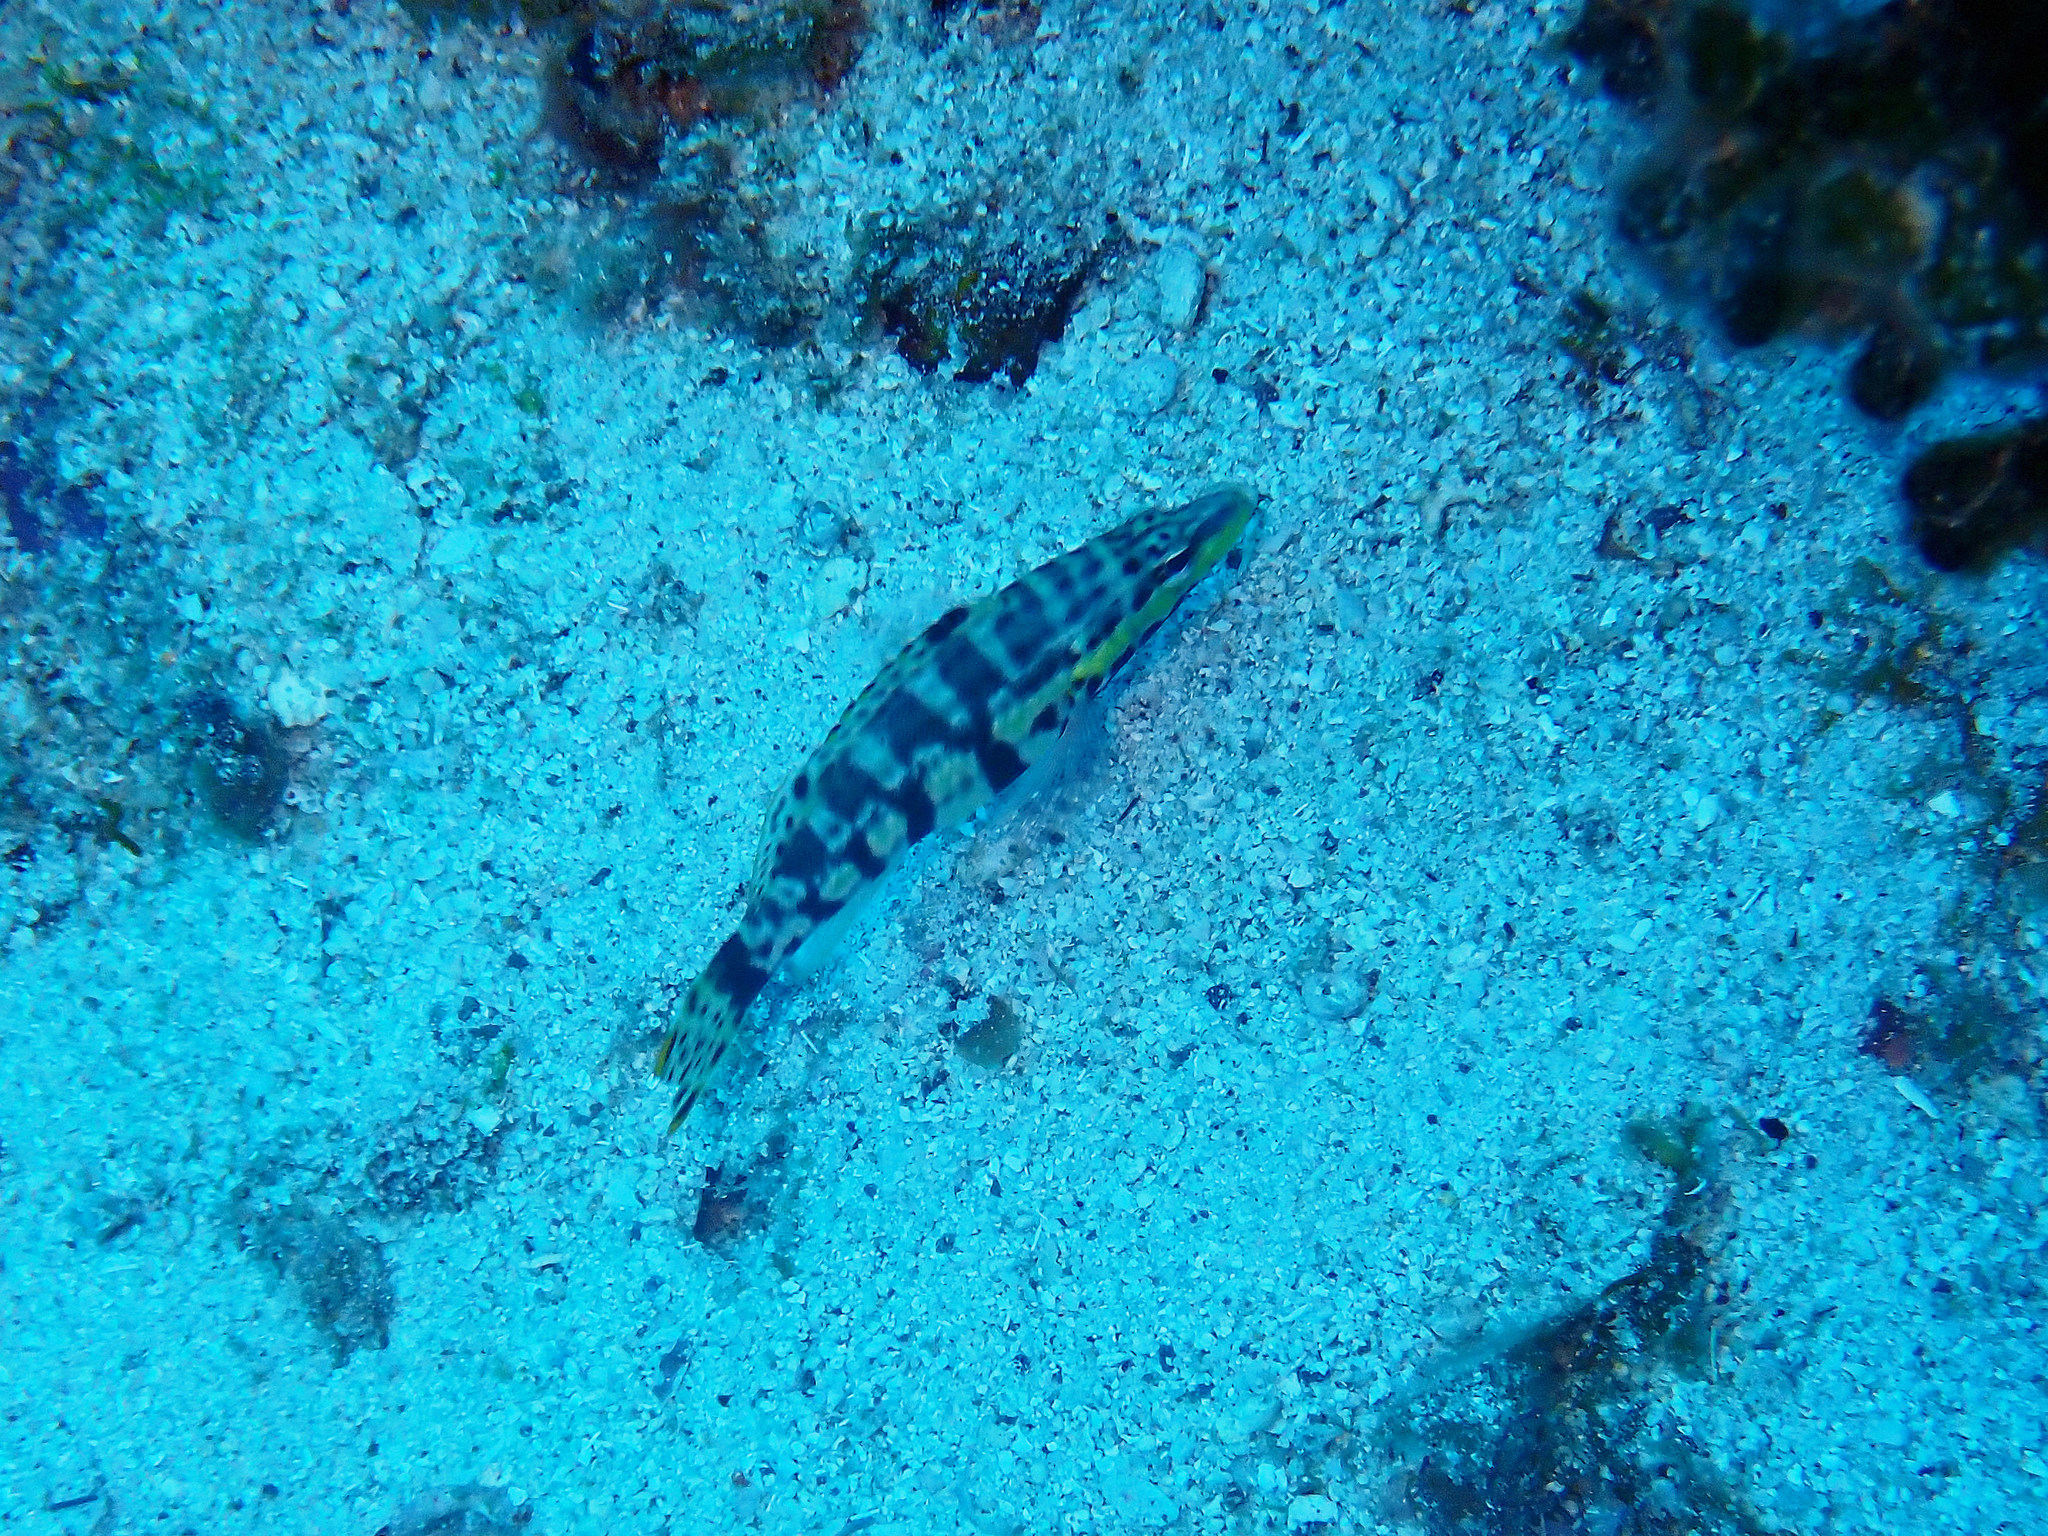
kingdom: Animalia
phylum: Chordata
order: Perciformes
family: Serranidae
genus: Serranus
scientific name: Serranus tigrinus
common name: Harlequin bass
